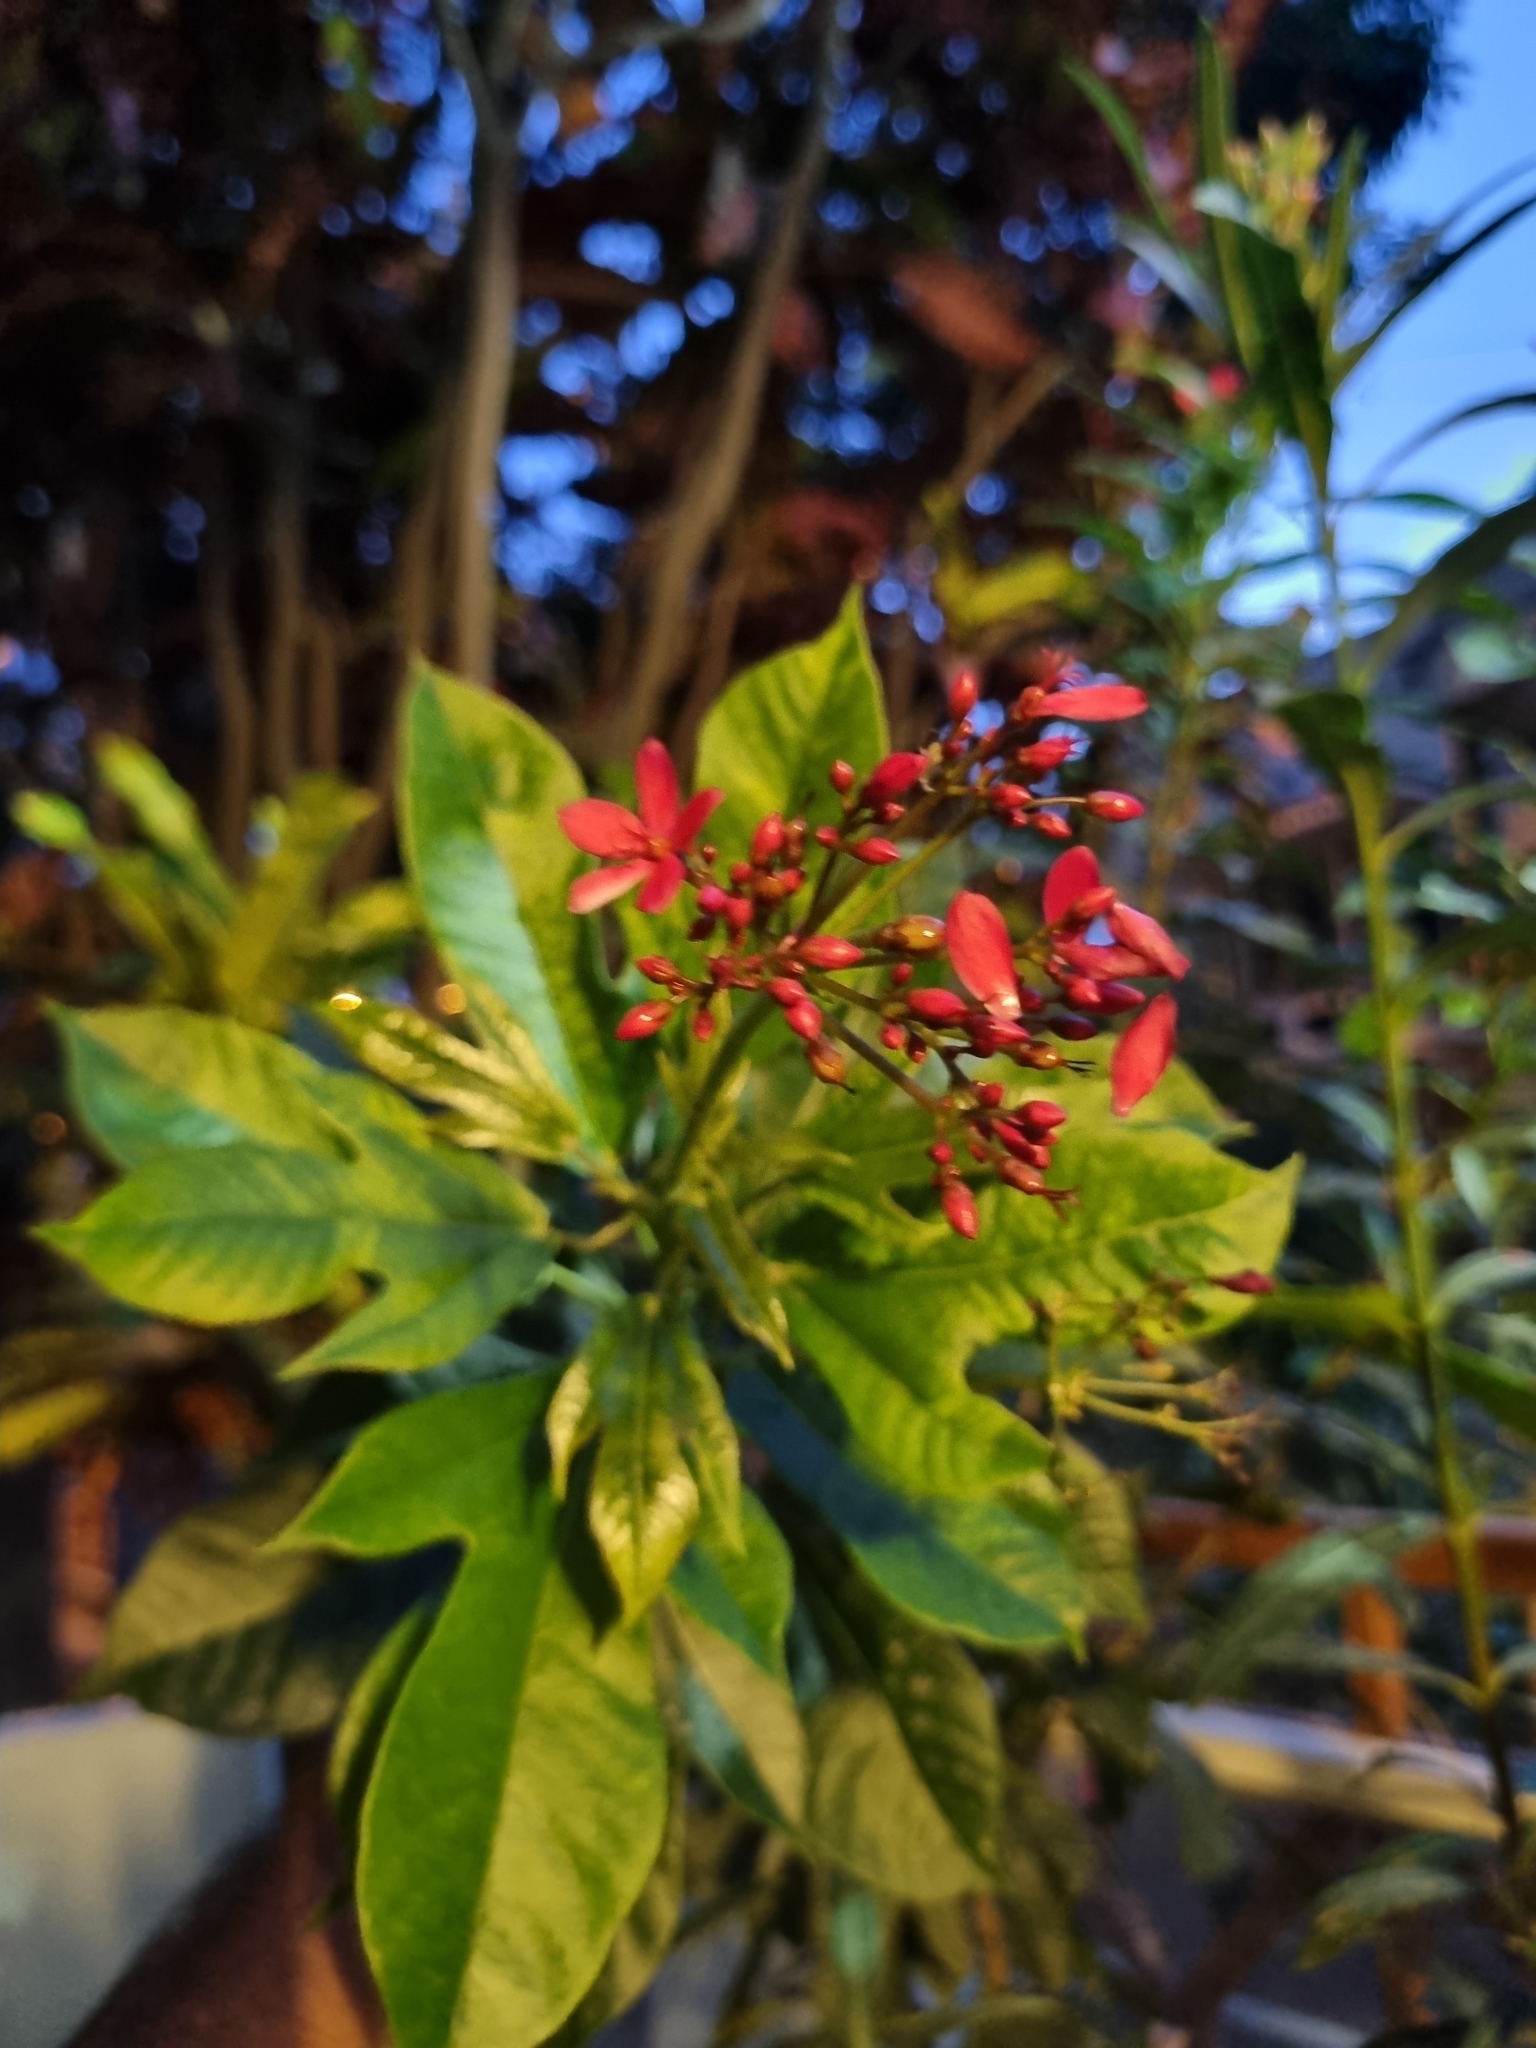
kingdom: Plantae
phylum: Tracheophyta
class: Magnoliopsida
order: Malpighiales
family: Euphorbiaceae
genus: Jatropha
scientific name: Jatropha integerrima
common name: Peregrina
